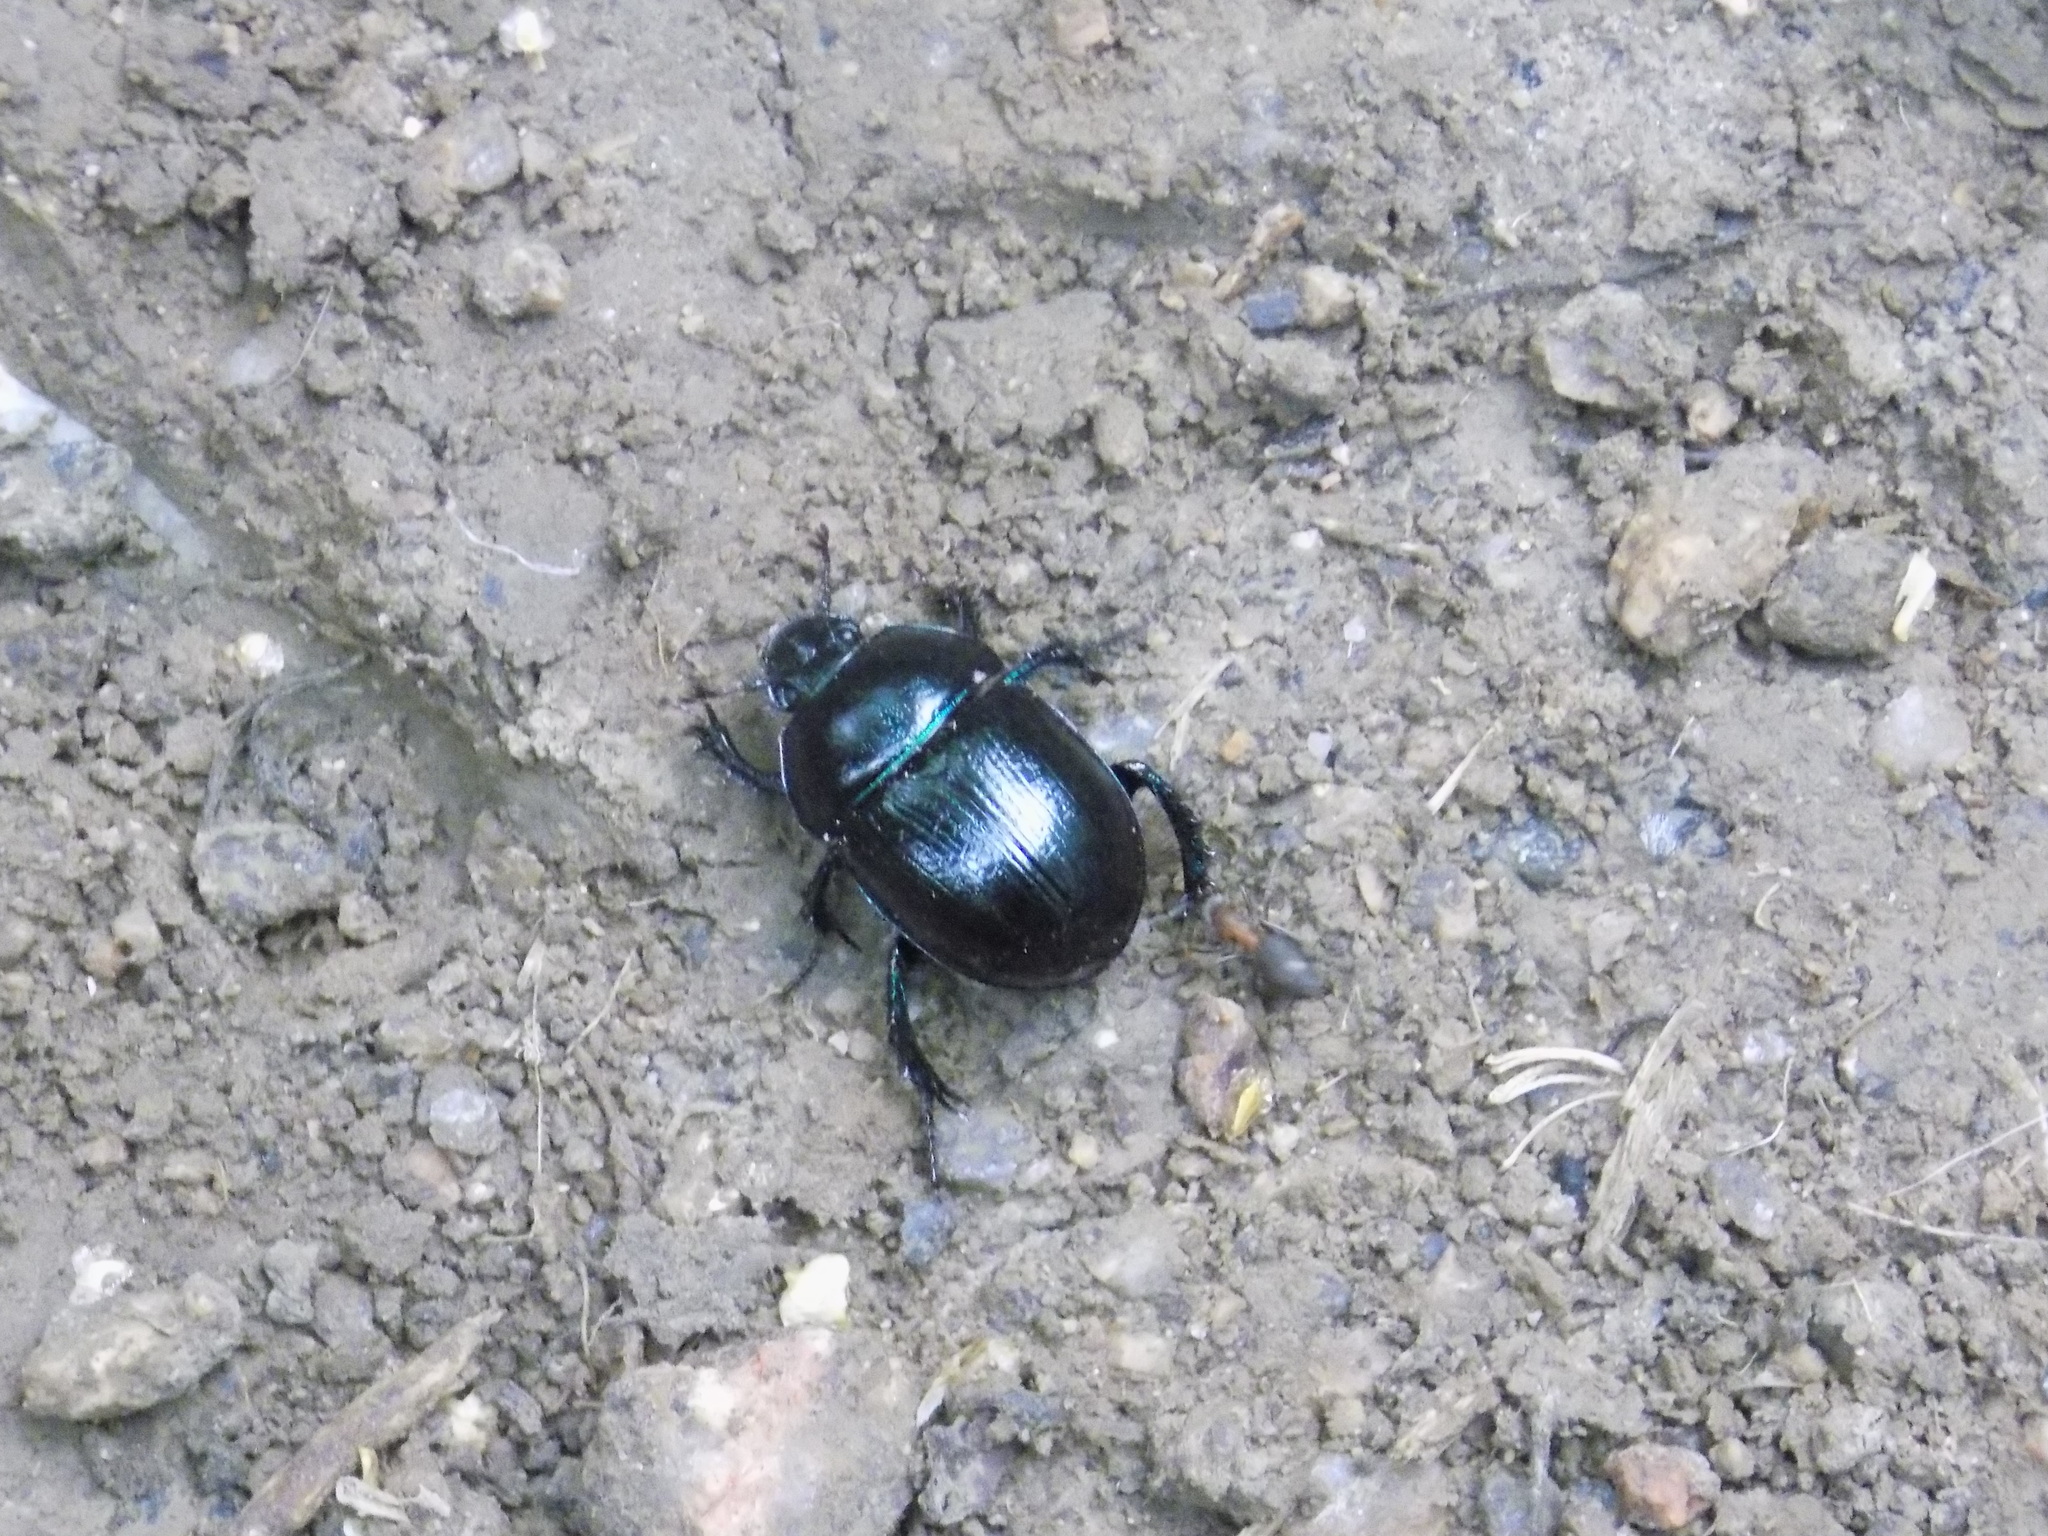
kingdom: Animalia
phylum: Arthropoda
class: Insecta
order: Coleoptera
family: Geotrupidae
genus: Anoplotrupes
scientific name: Anoplotrupes stercorosus
